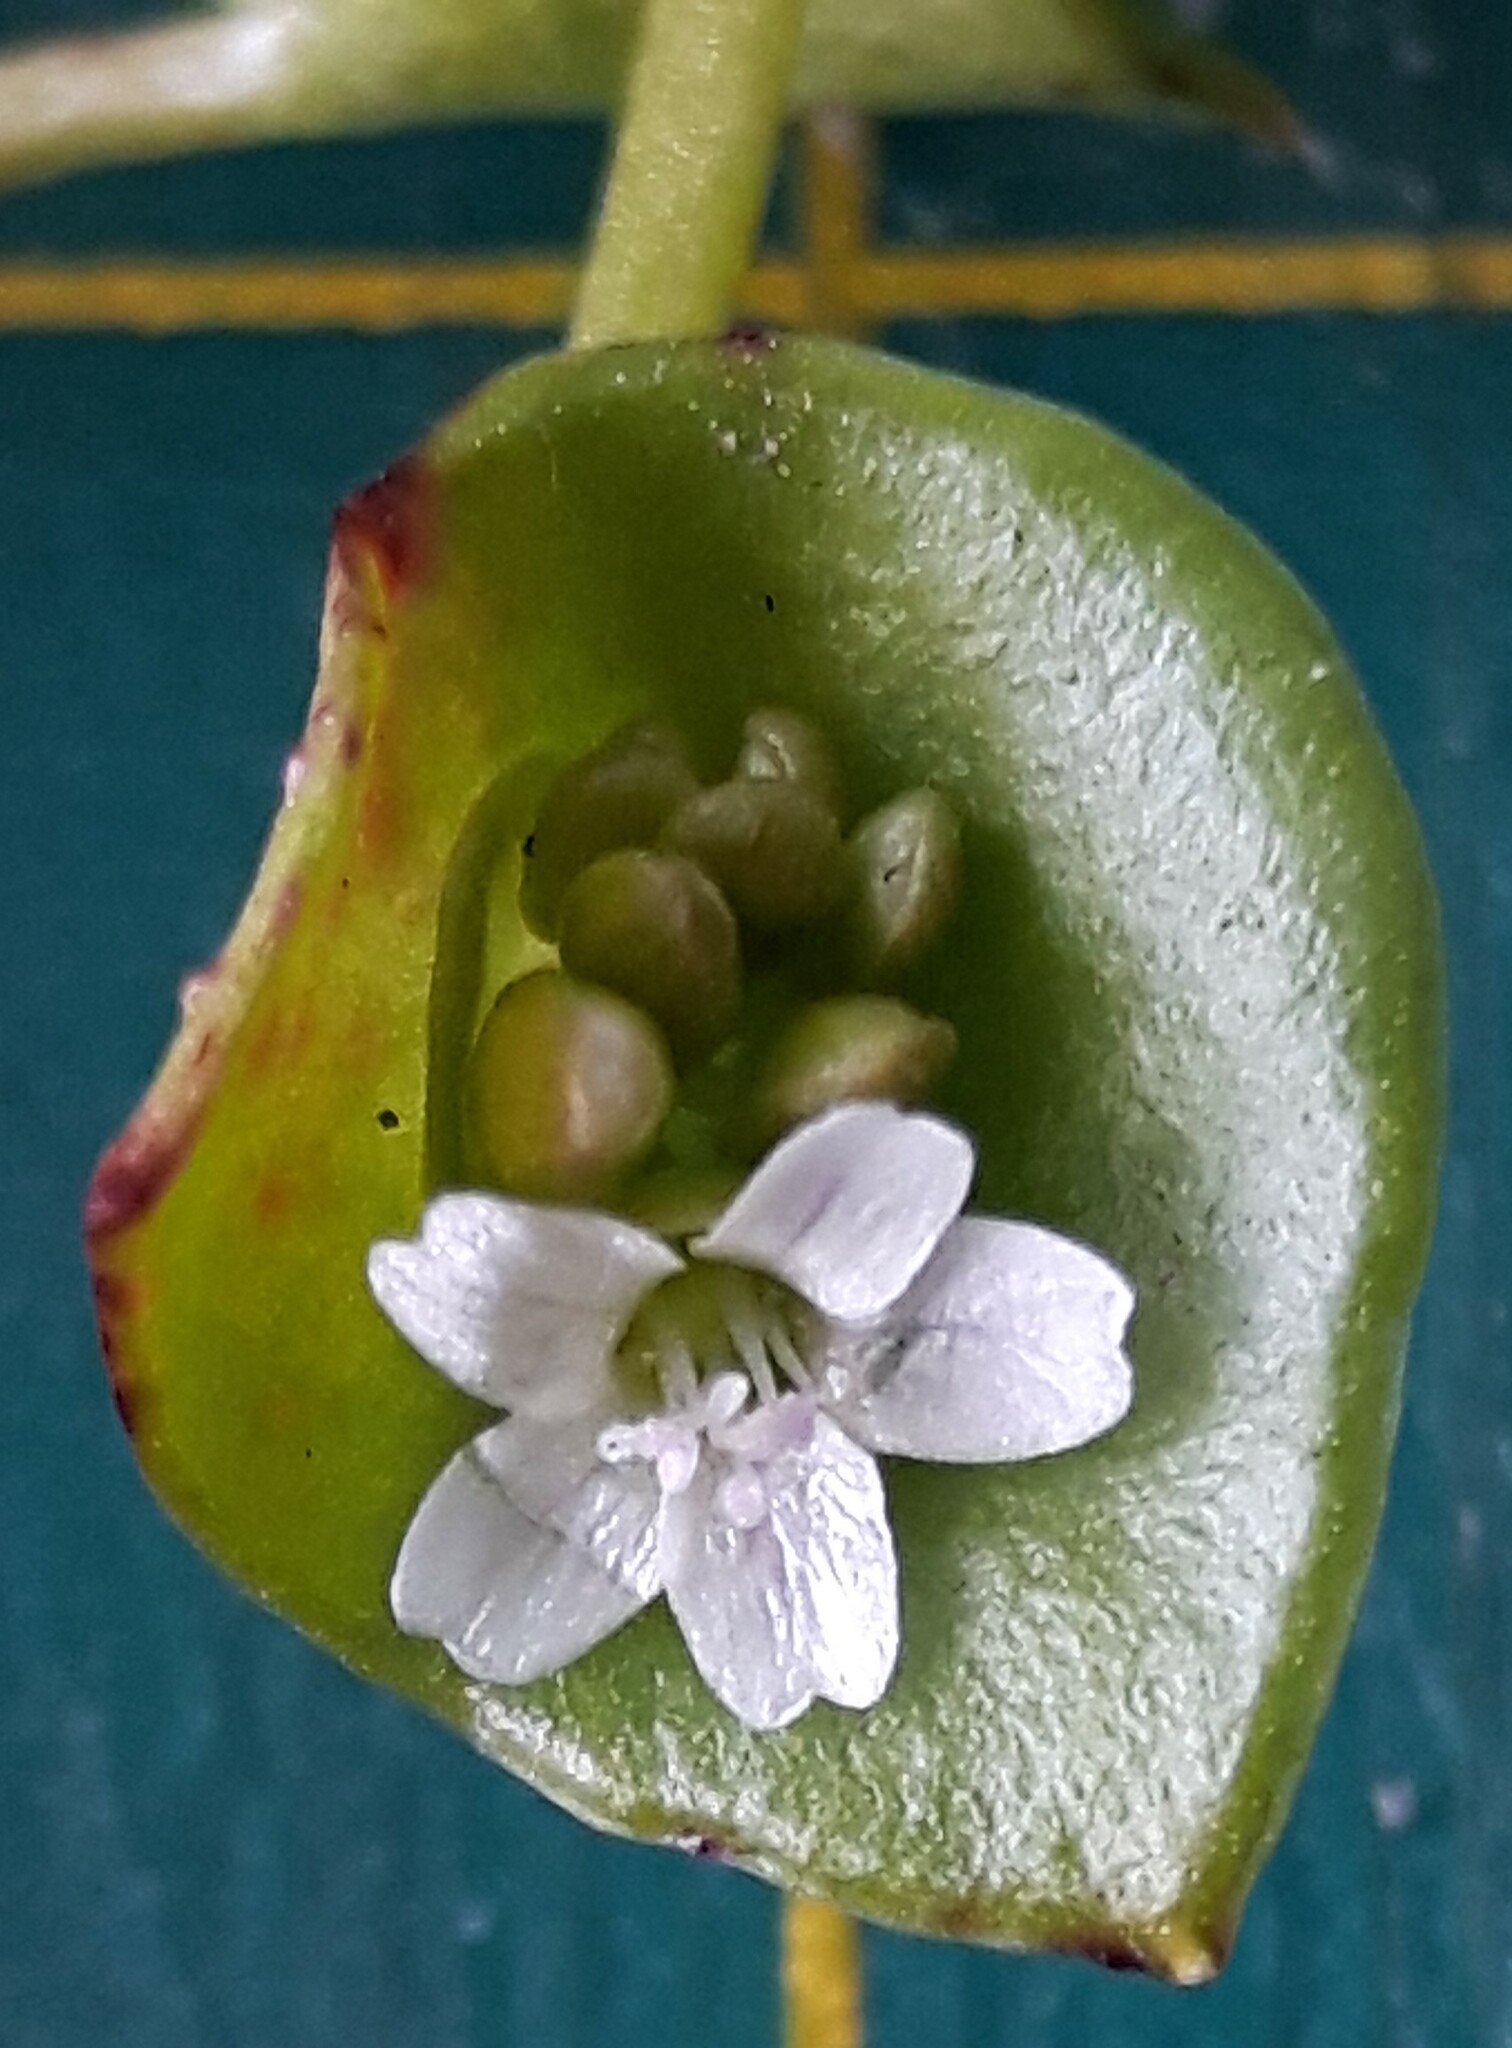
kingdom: Plantae
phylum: Tracheophyta
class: Magnoliopsida
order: Caryophyllales
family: Montiaceae
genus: Claytonia
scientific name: Claytonia rubra
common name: Erubescent miner's-lettuce
